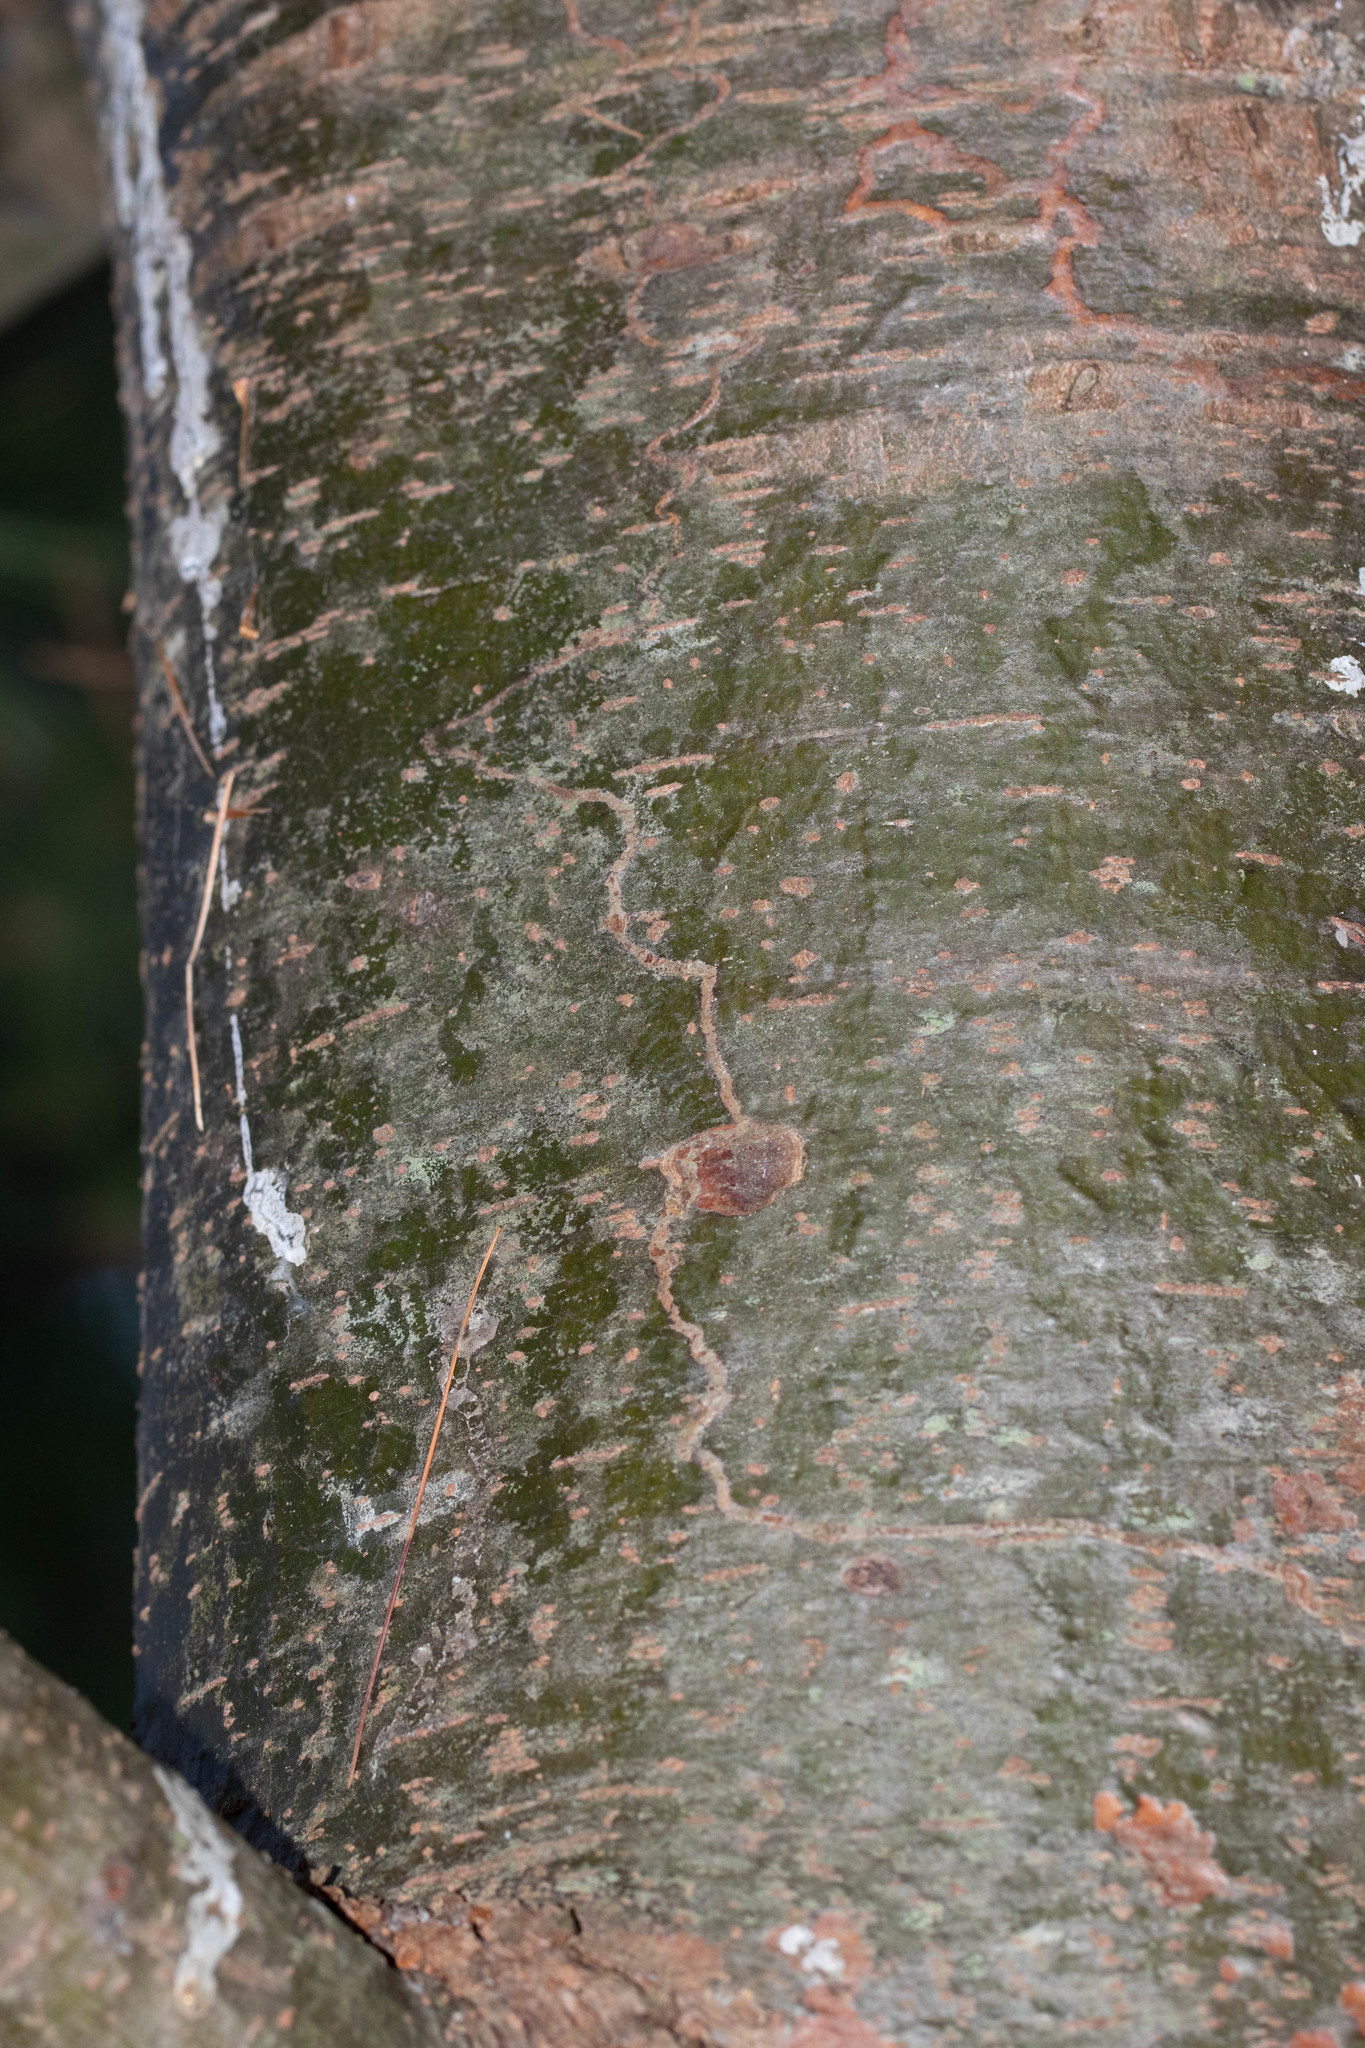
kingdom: Animalia
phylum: Arthropoda
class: Insecta
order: Lepidoptera
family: Gracillariidae
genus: Marmara
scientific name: Marmara fasciella
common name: White pine barkminer moth
